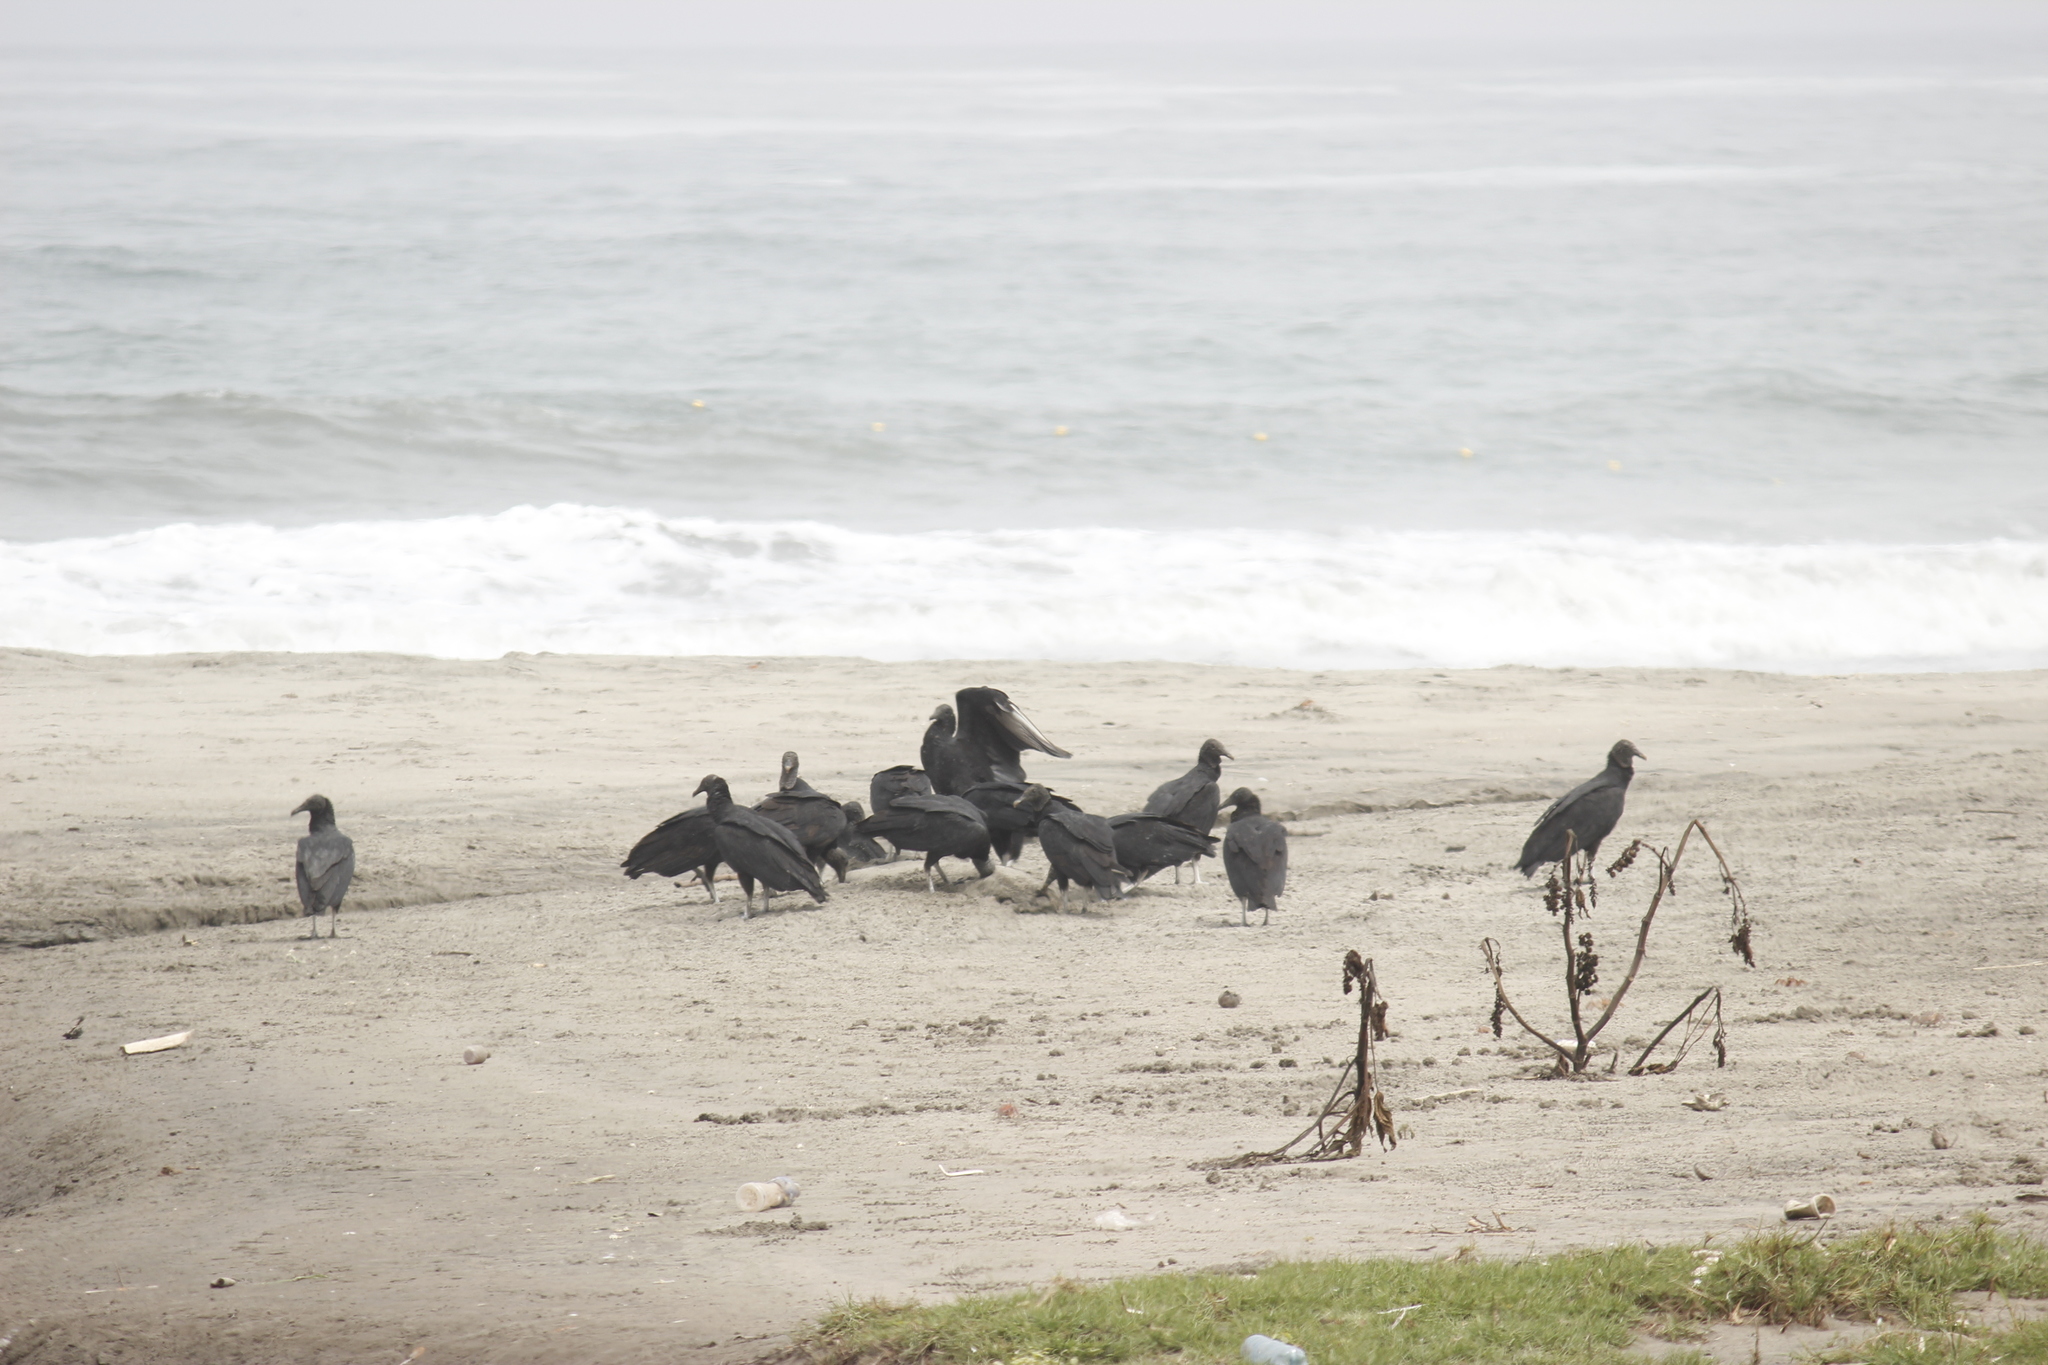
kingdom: Animalia
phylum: Chordata
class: Aves
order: Accipitriformes
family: Cathartidae
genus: Coragyps
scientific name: Coragyps atratus
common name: Black vulture
